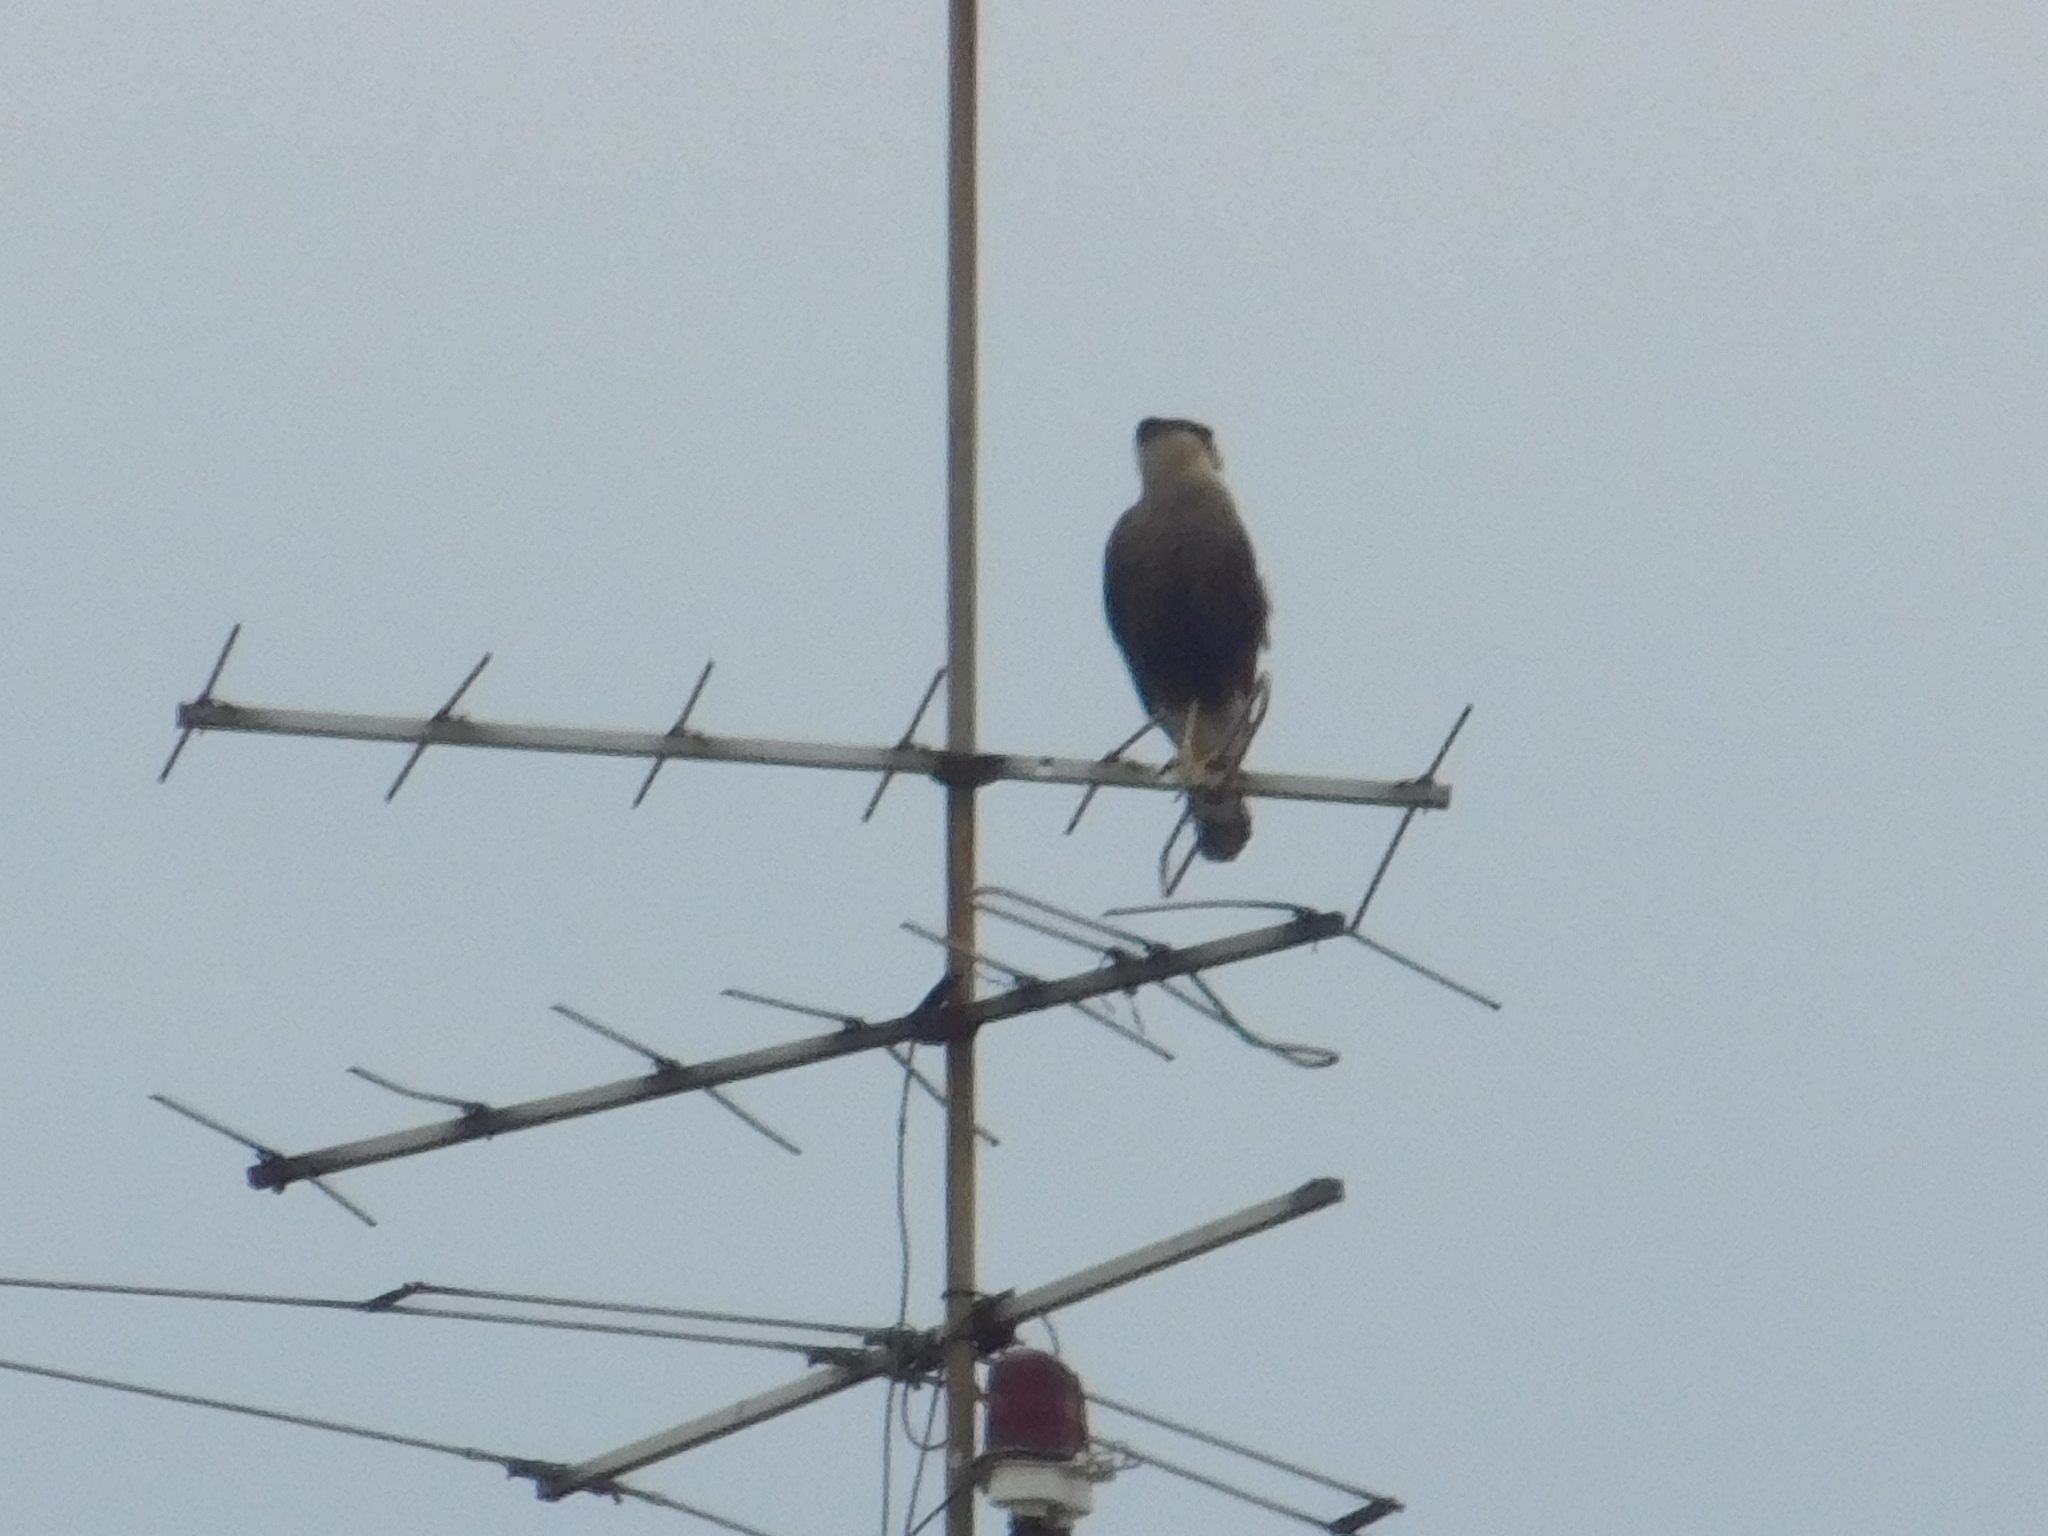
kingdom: Animalia
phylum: Chordata
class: Aves
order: Falconiformes
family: Falconidae
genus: Caracara
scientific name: Caracara plancus
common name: Southern caracara
